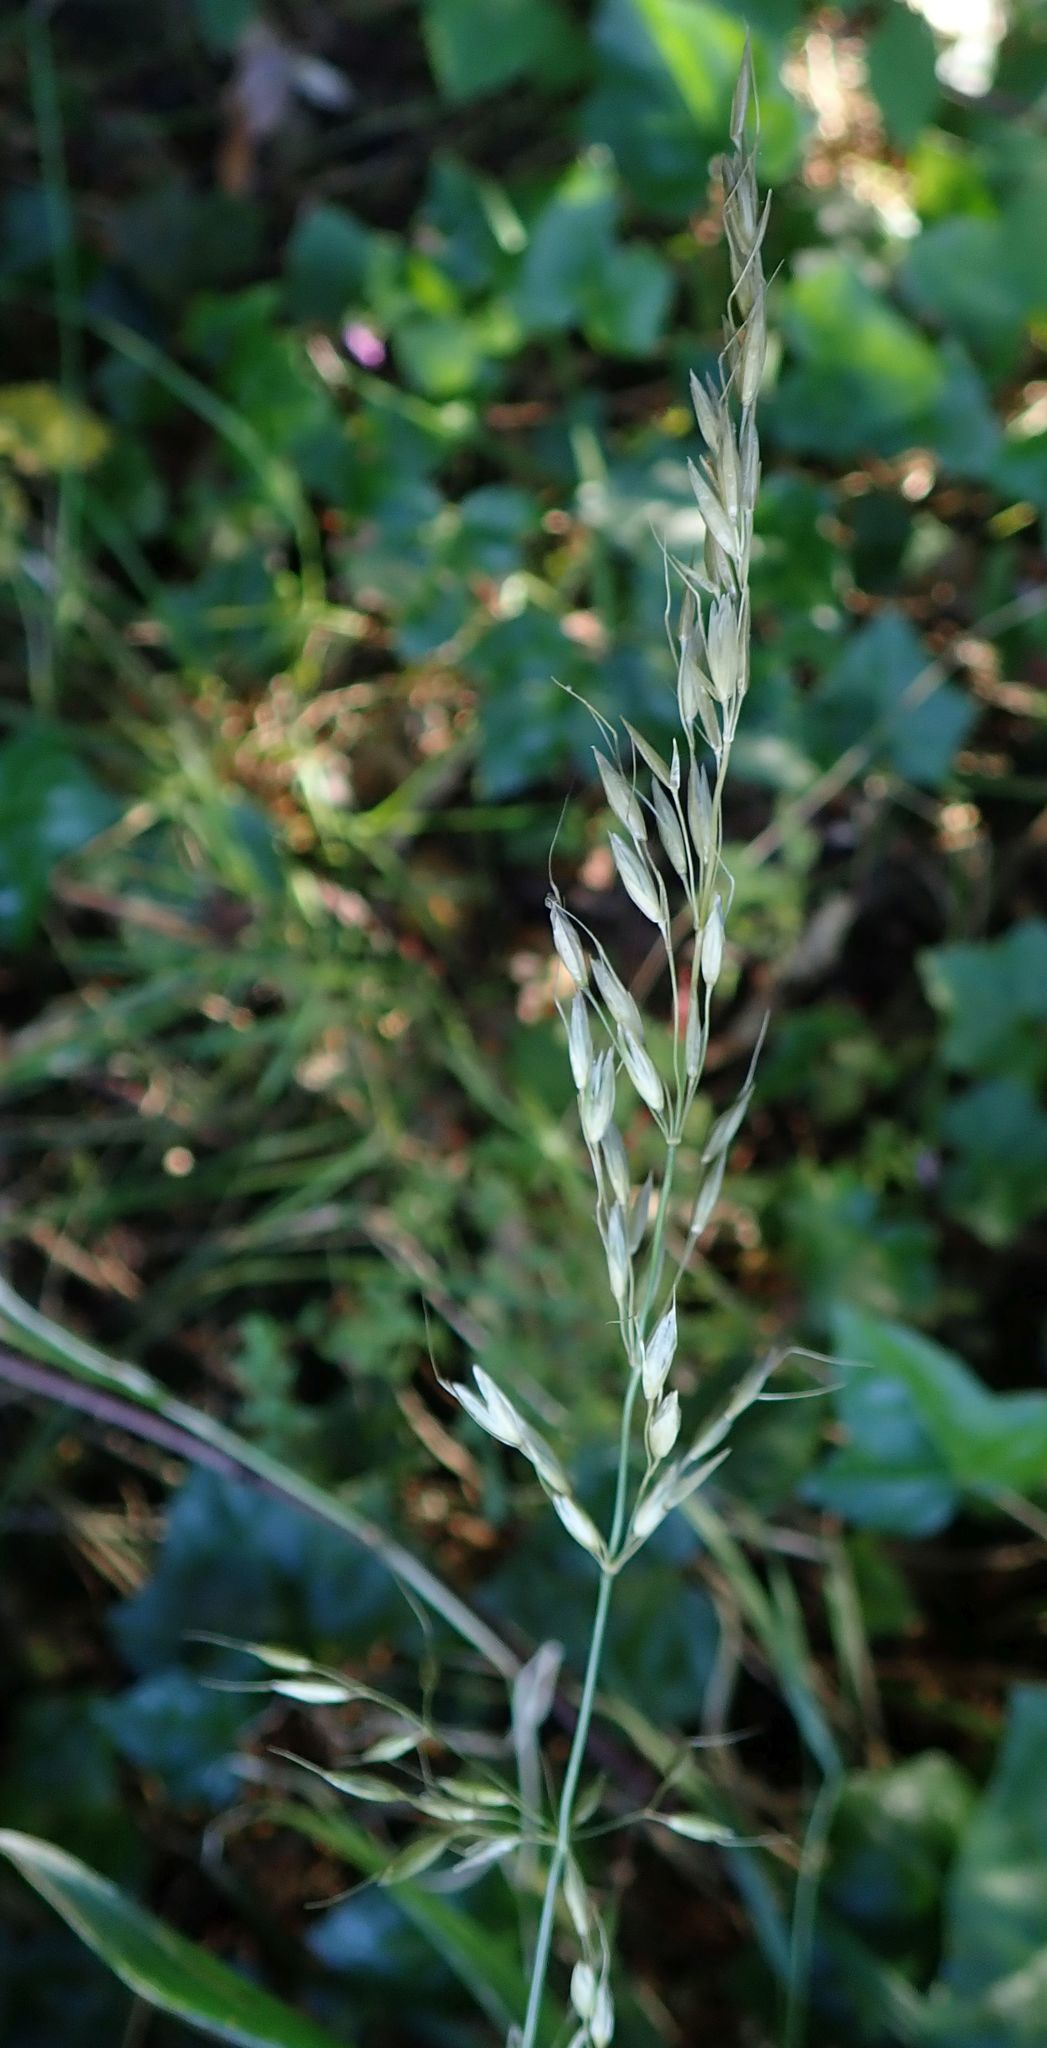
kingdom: Plantae
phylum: Tracheophyta
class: Liliopsida
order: Poales
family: Poaceae
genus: Arrhenatherum
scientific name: Arrhenatherum elatius
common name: Tall oatgrass
